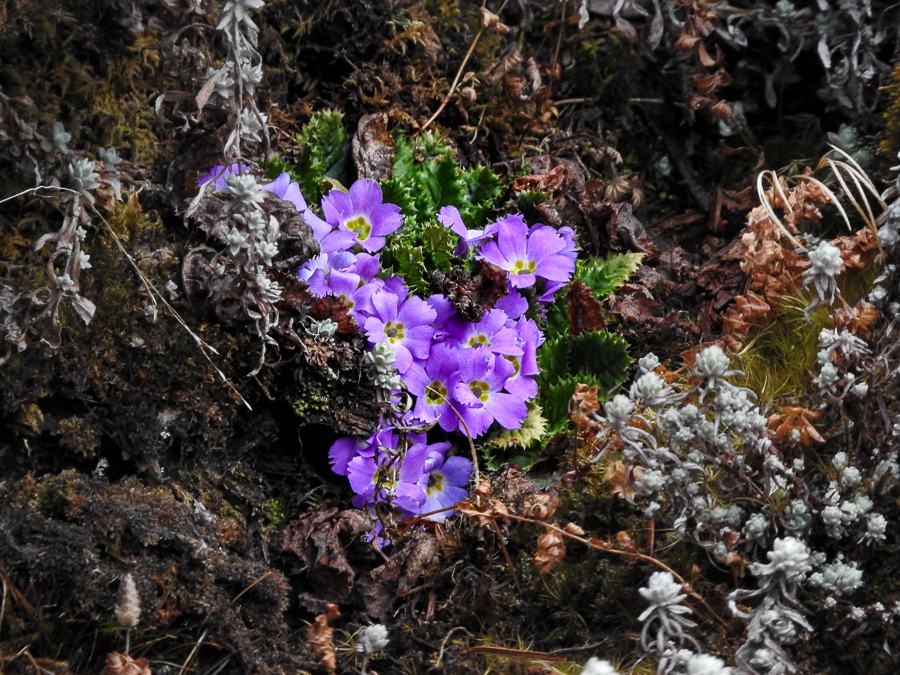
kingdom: Plantae
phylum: Tracheophyta
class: Magnoliopsida
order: Ericales
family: Primulaceae
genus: Primula
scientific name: Primula gracilipes
